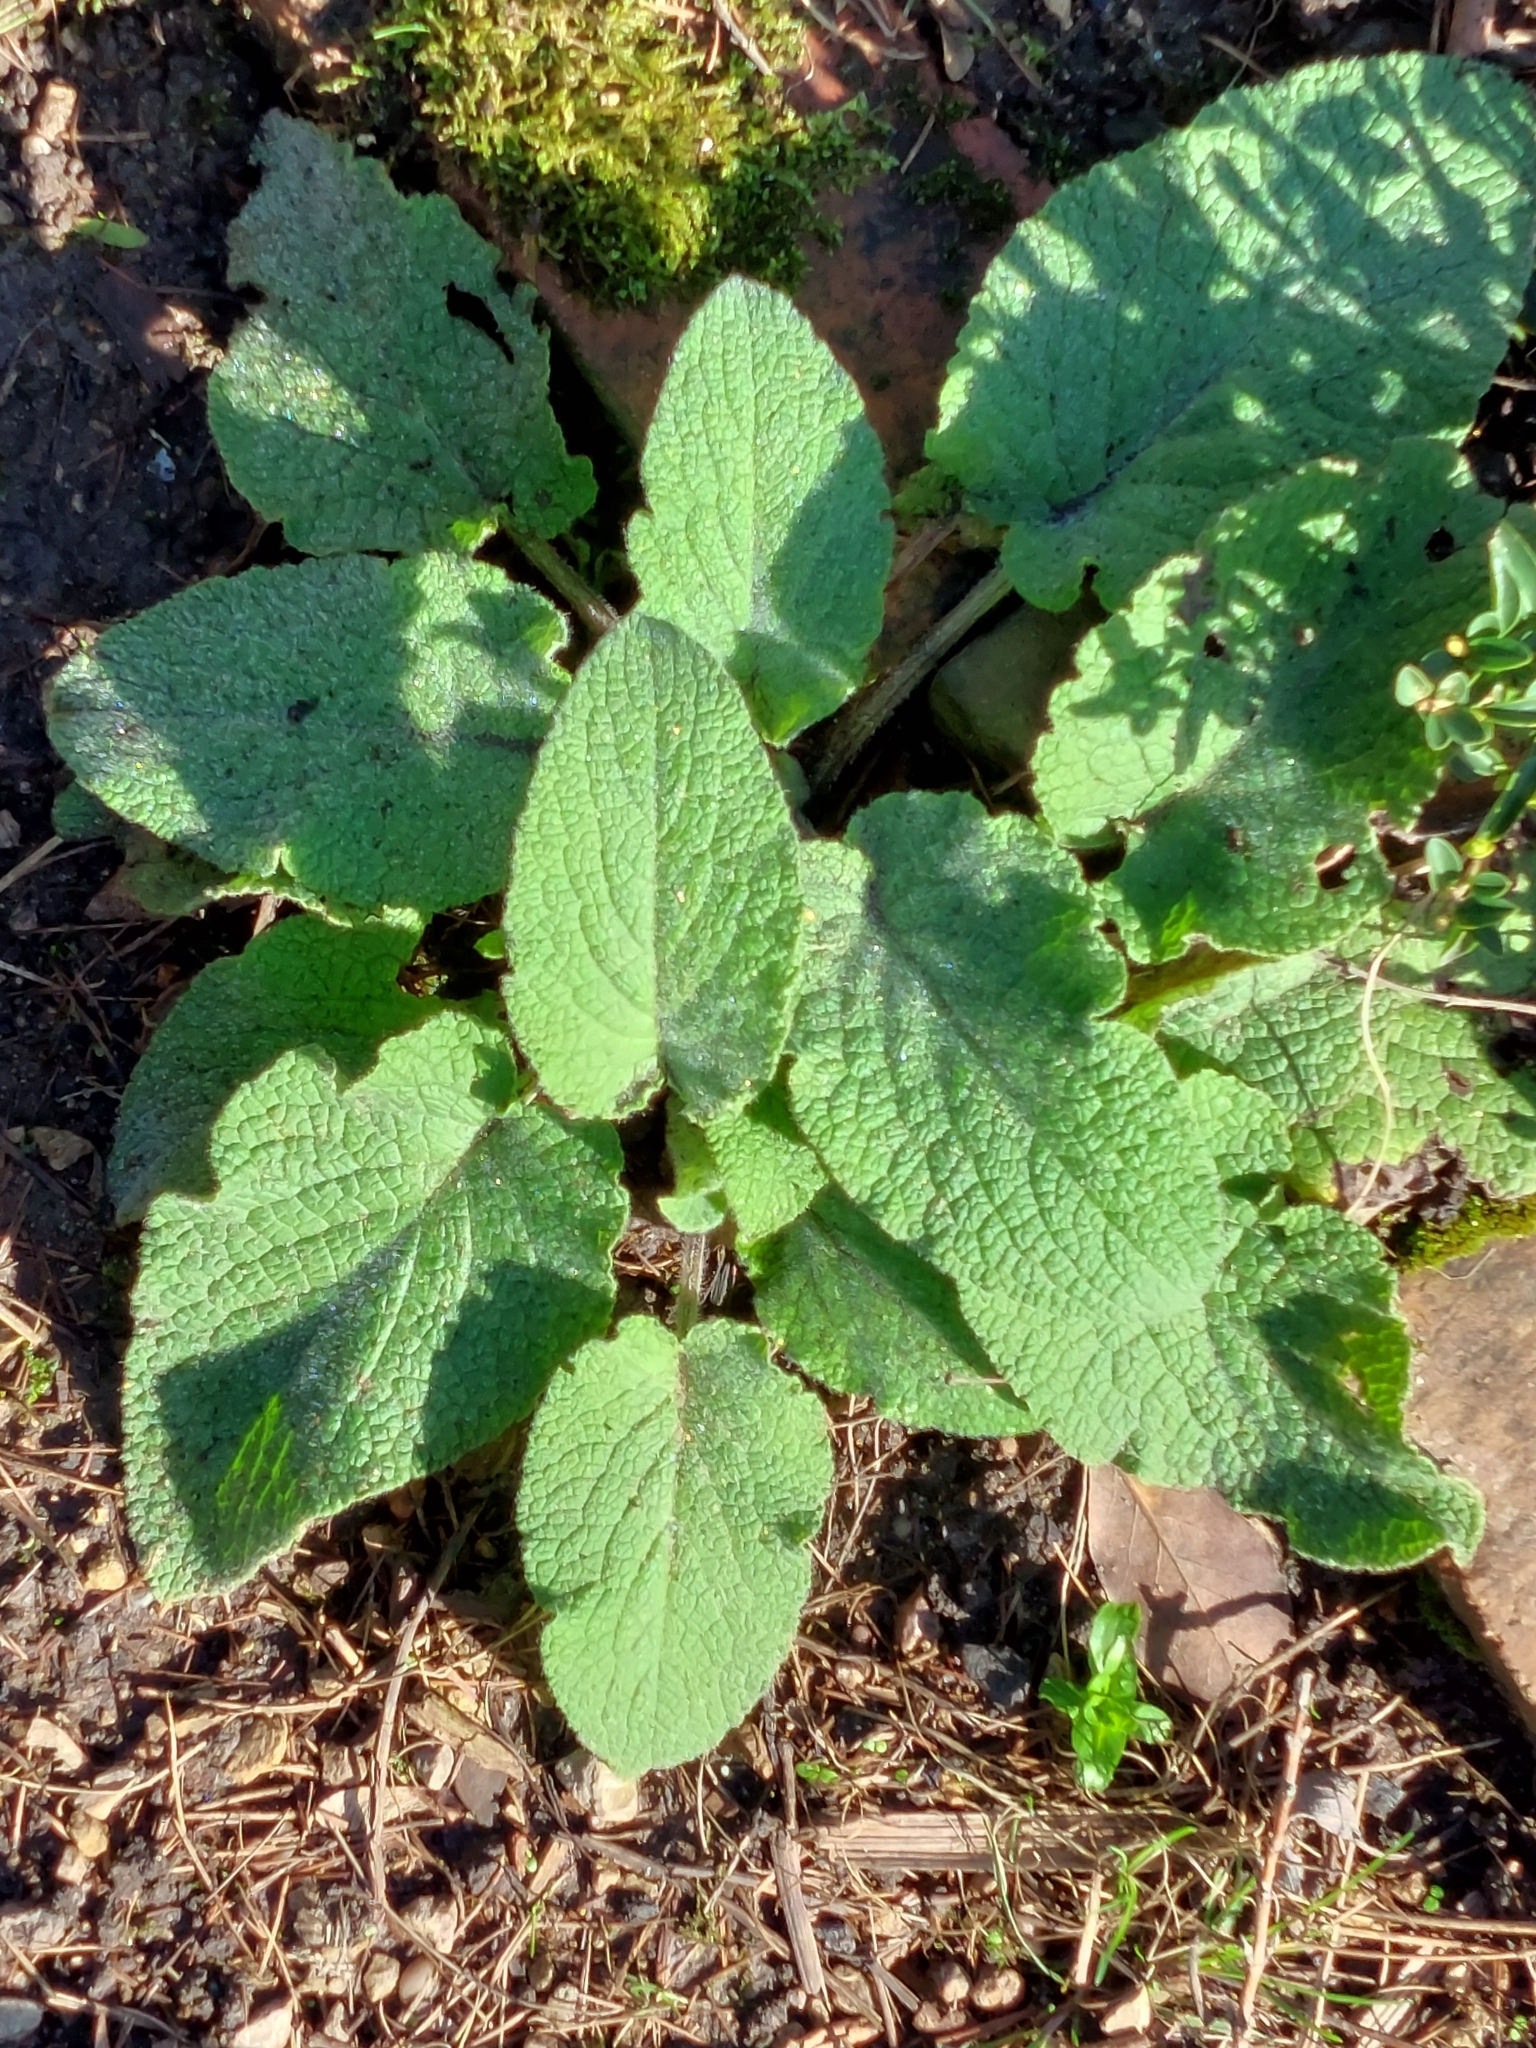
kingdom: Plantae
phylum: Tracheophyta
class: Magnoliopsida
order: Lamiales
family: Plantaginaceae
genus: Digitalis
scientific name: Digitalis purpurea
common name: Foxglove
